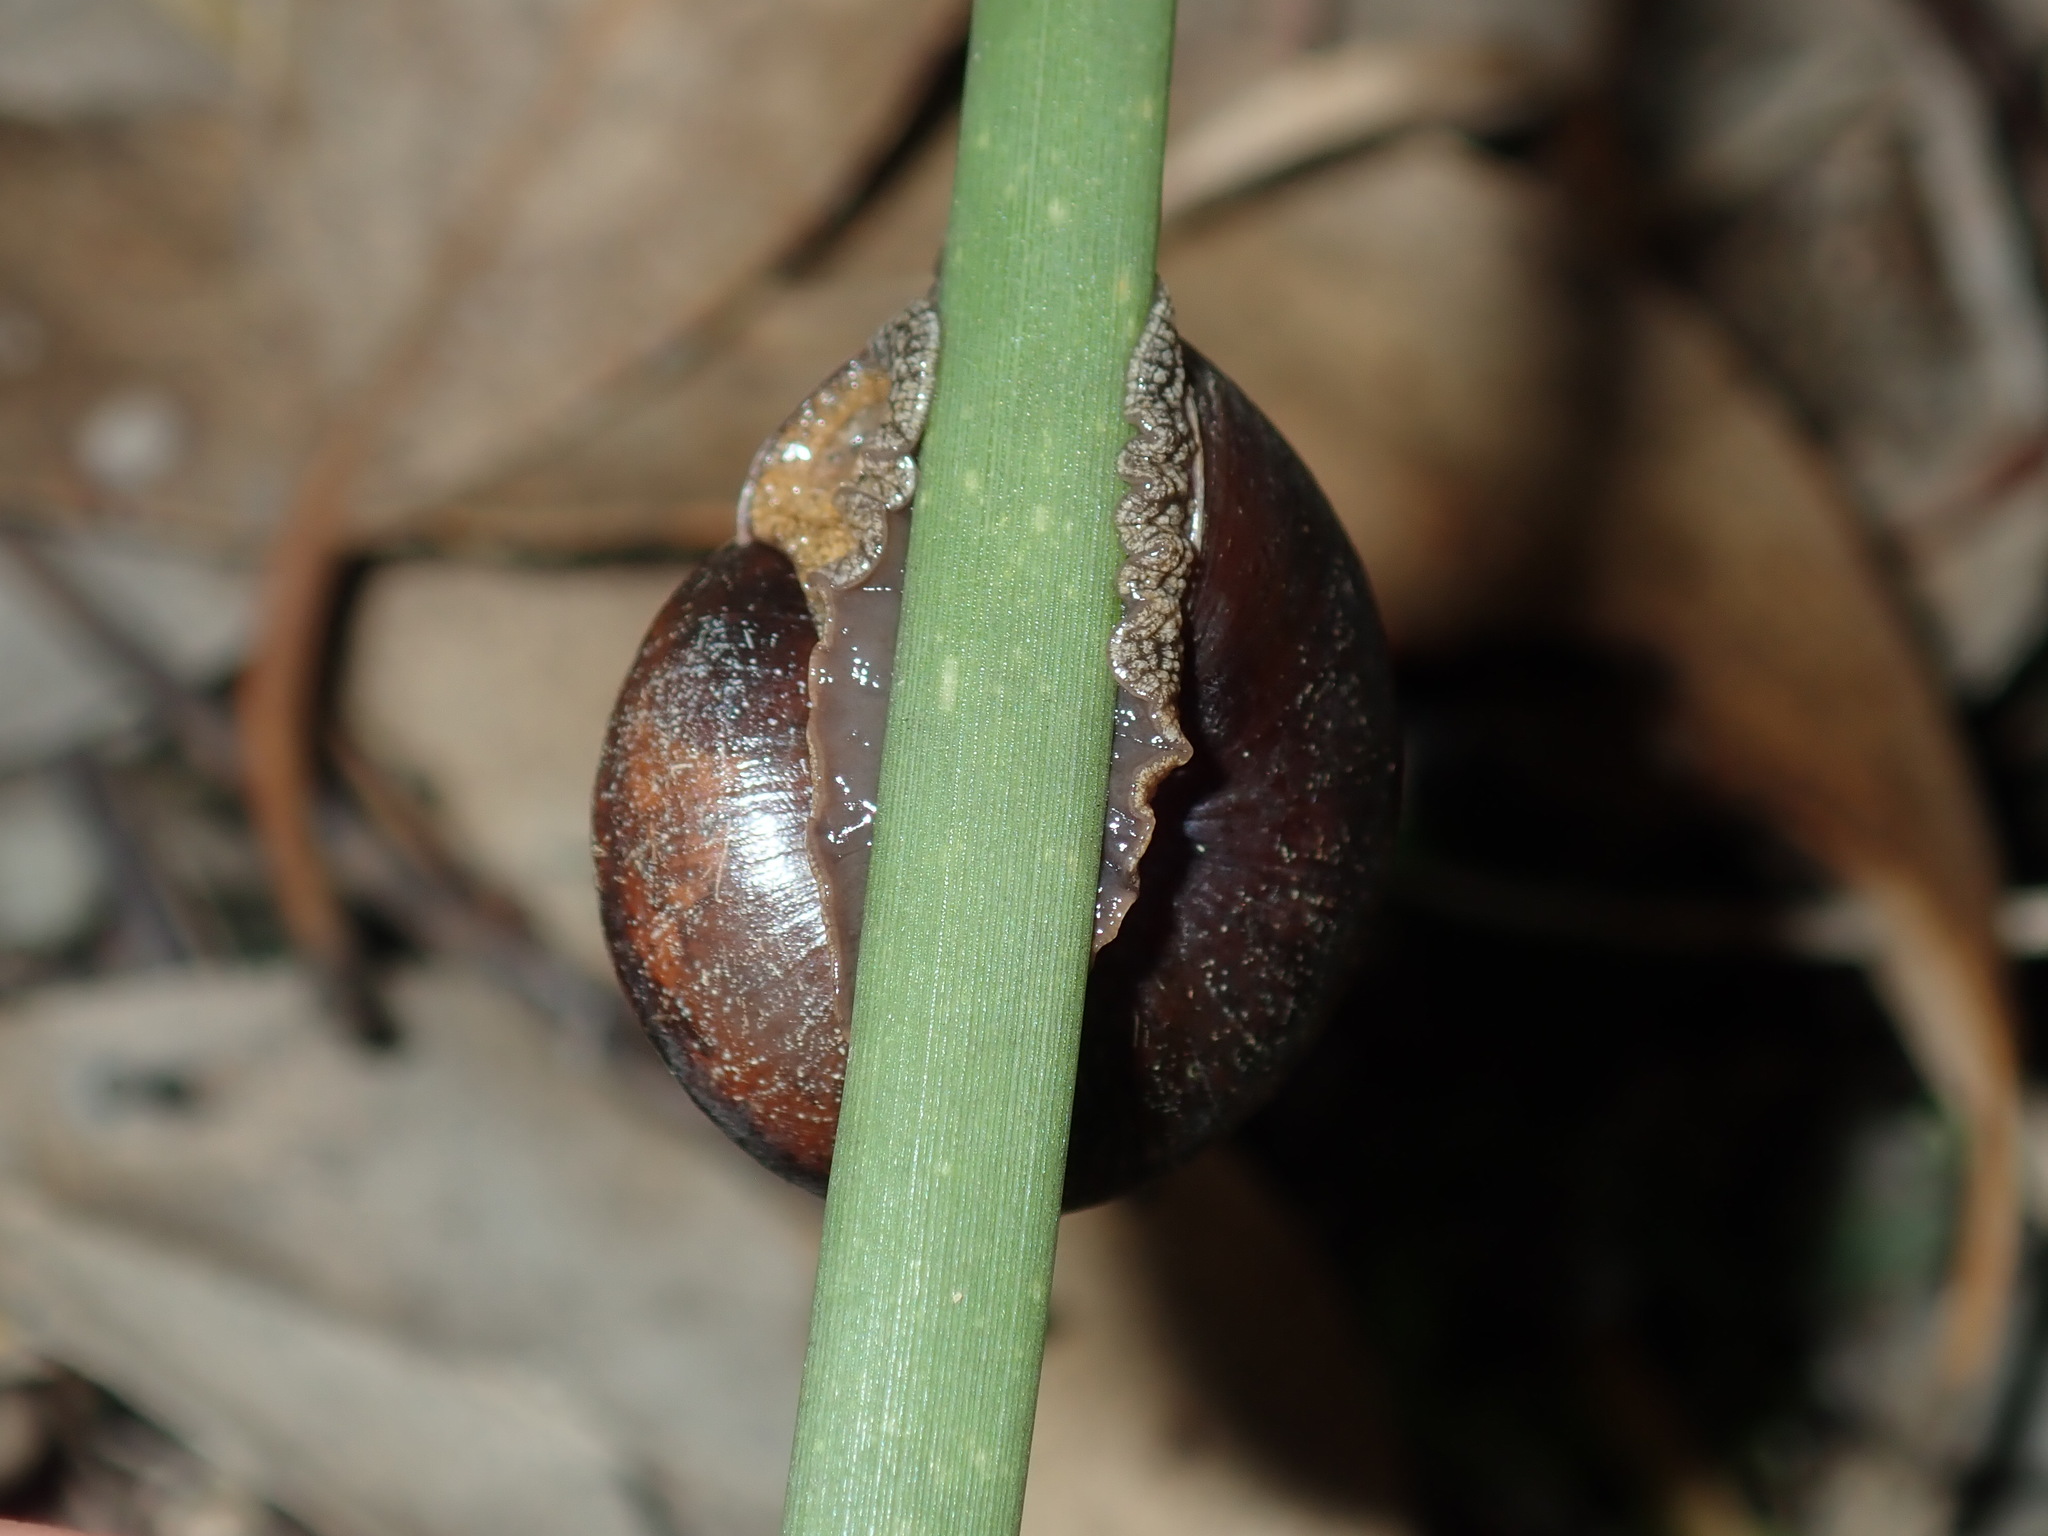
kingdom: Animalia
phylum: Mollusca
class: Gastropoda
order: Stylommatophora
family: Camaenidae
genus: Sauroconcha
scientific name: Sauroconcha sheai
